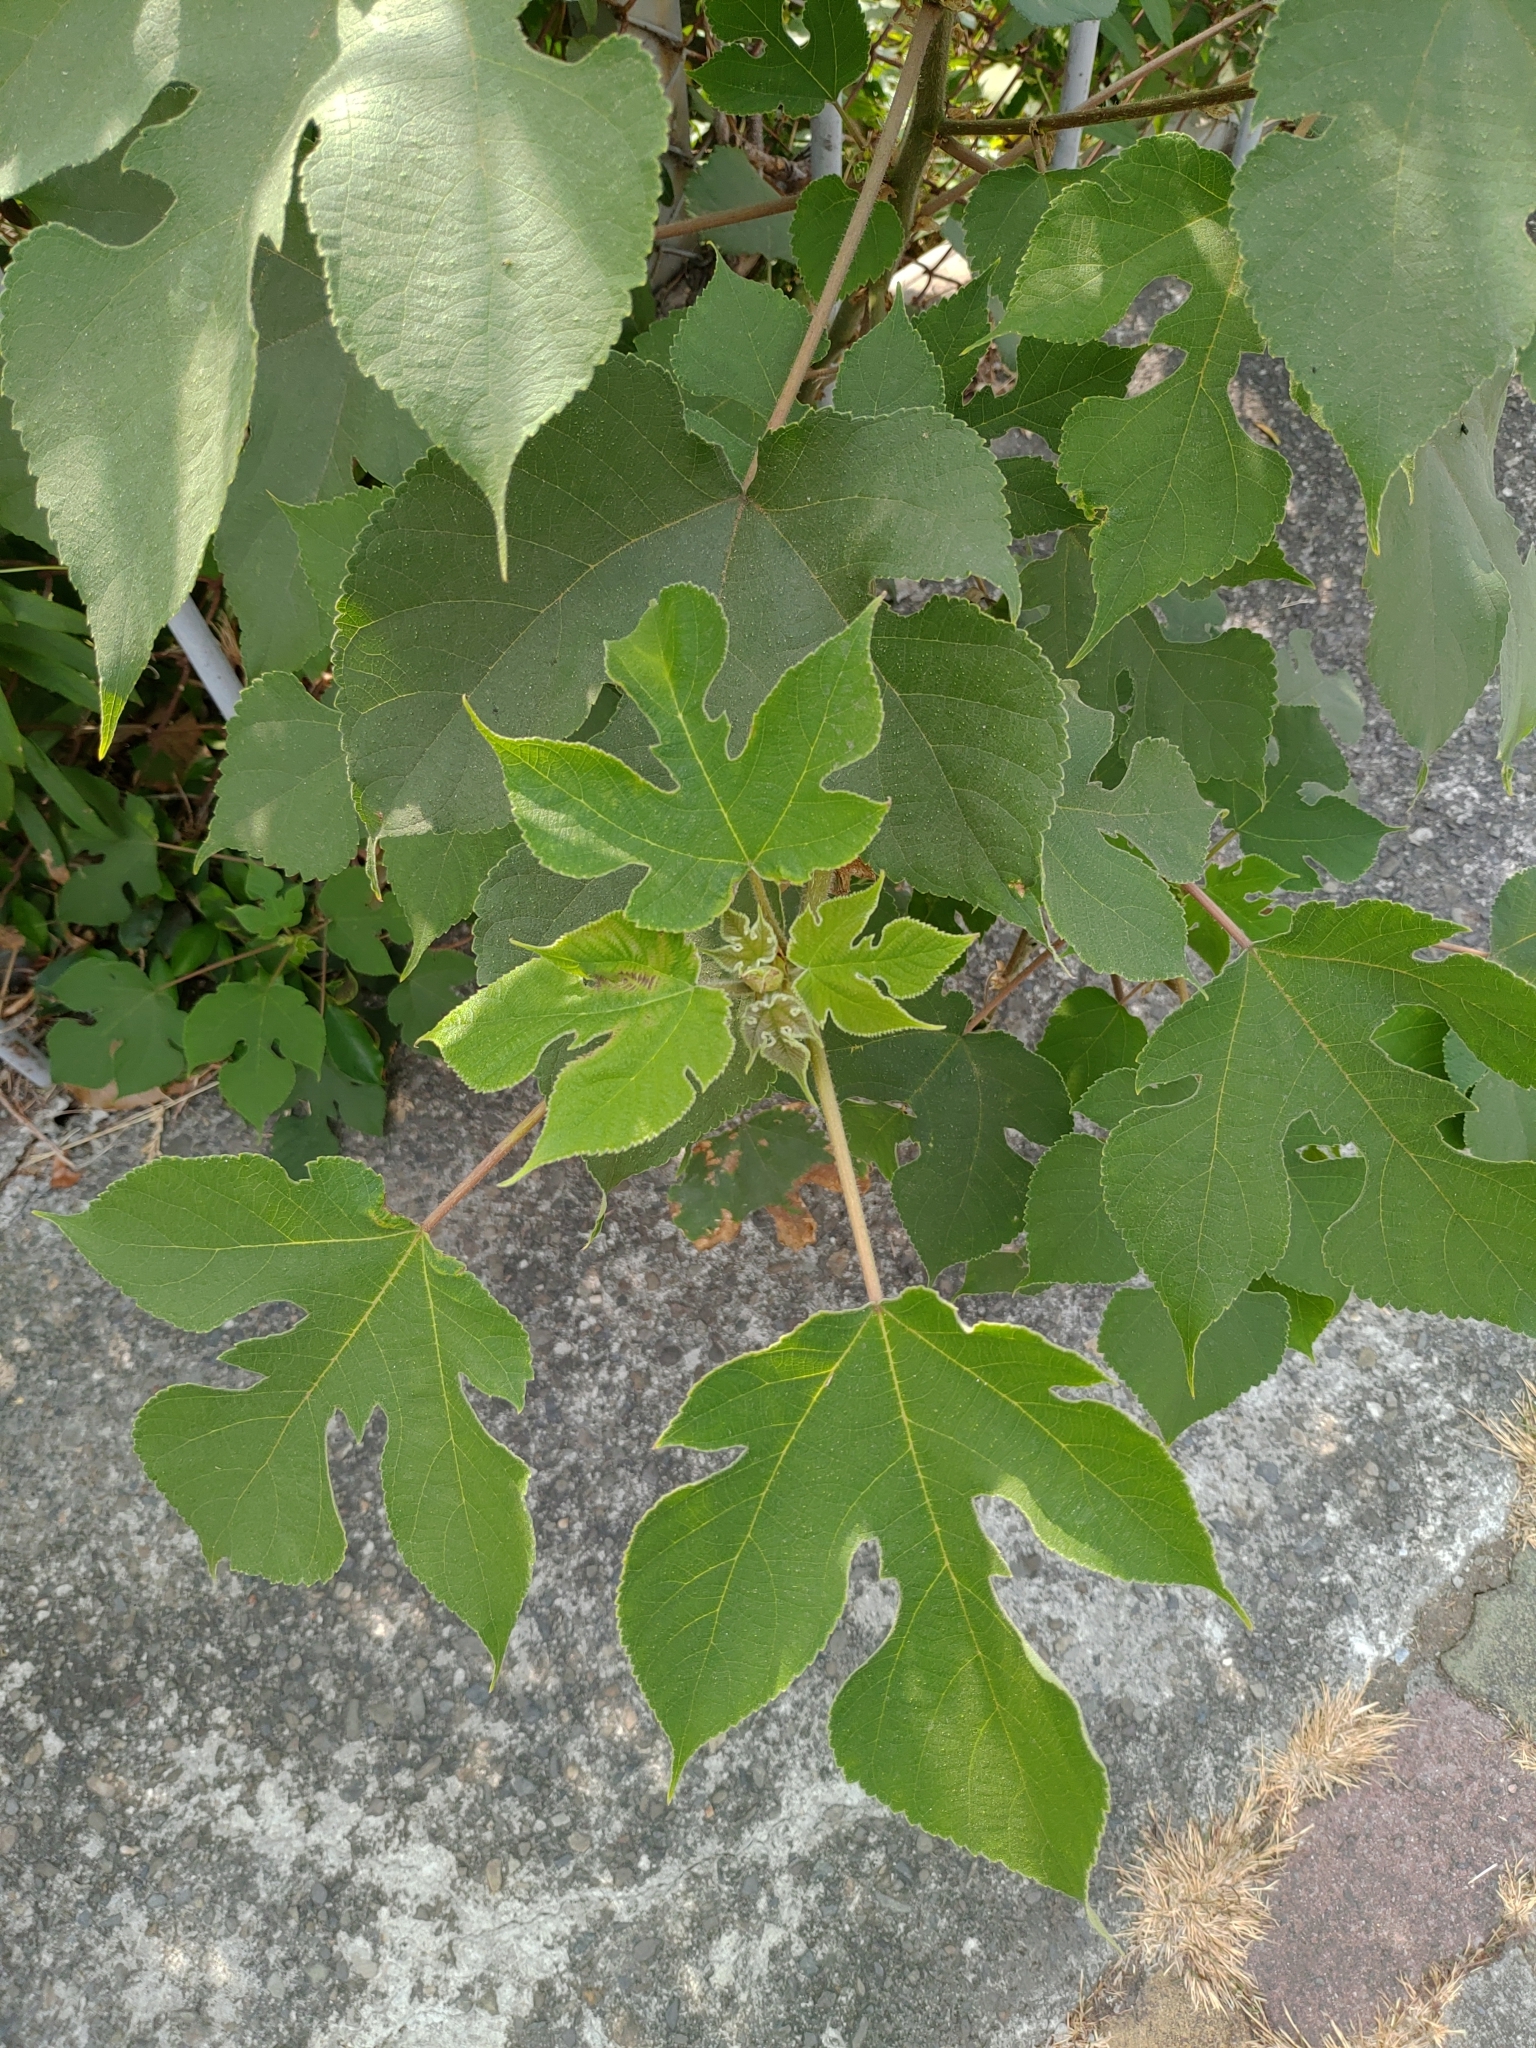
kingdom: Plantae
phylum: Tracheophyta
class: Magnoliopsida
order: Rosales
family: Moraceae
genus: Broussonetia
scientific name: Broussonetia papyrifera
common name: Paper mulberry
